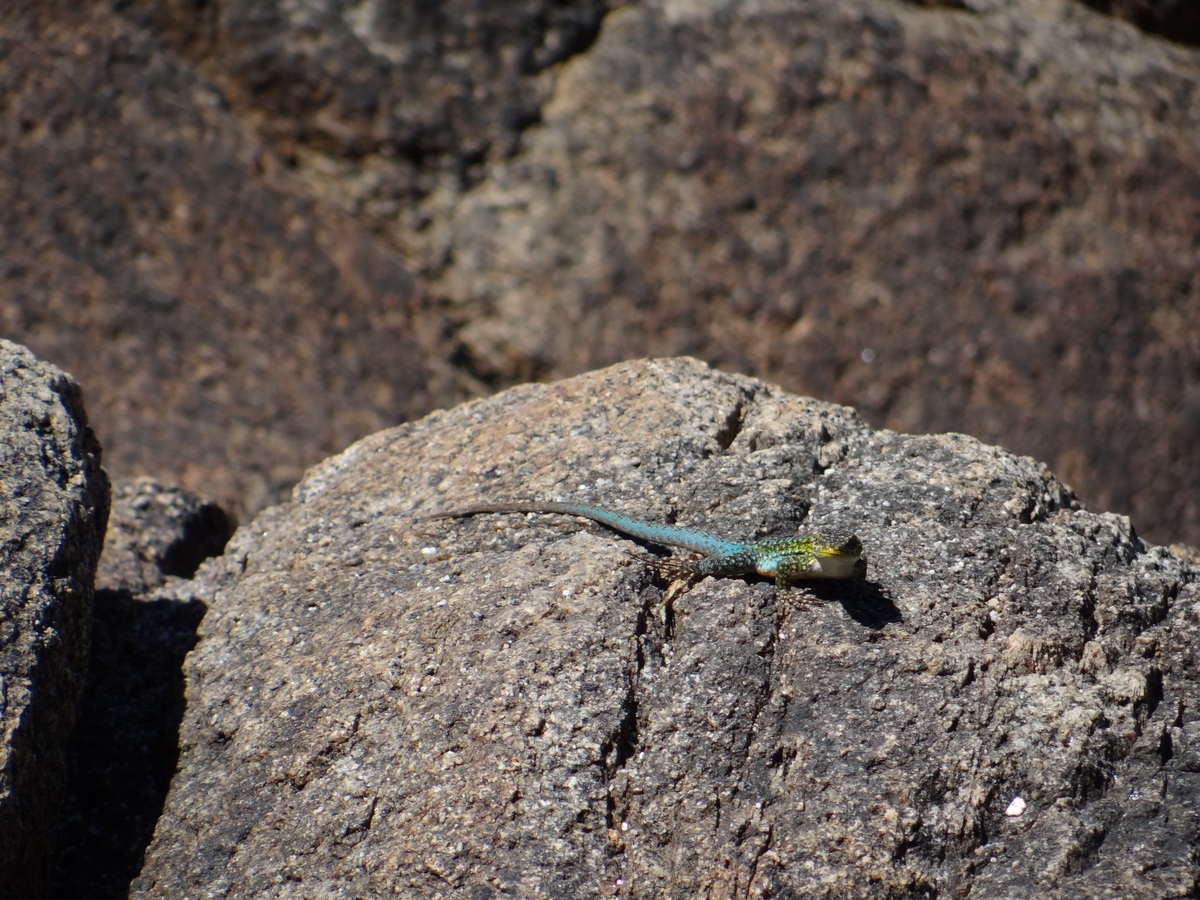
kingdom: Animalia
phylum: Chordata
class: Squamata
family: Liolaemidae
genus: Liolaemus
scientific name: Liolaemus tenuis
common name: Thin tree iguana
